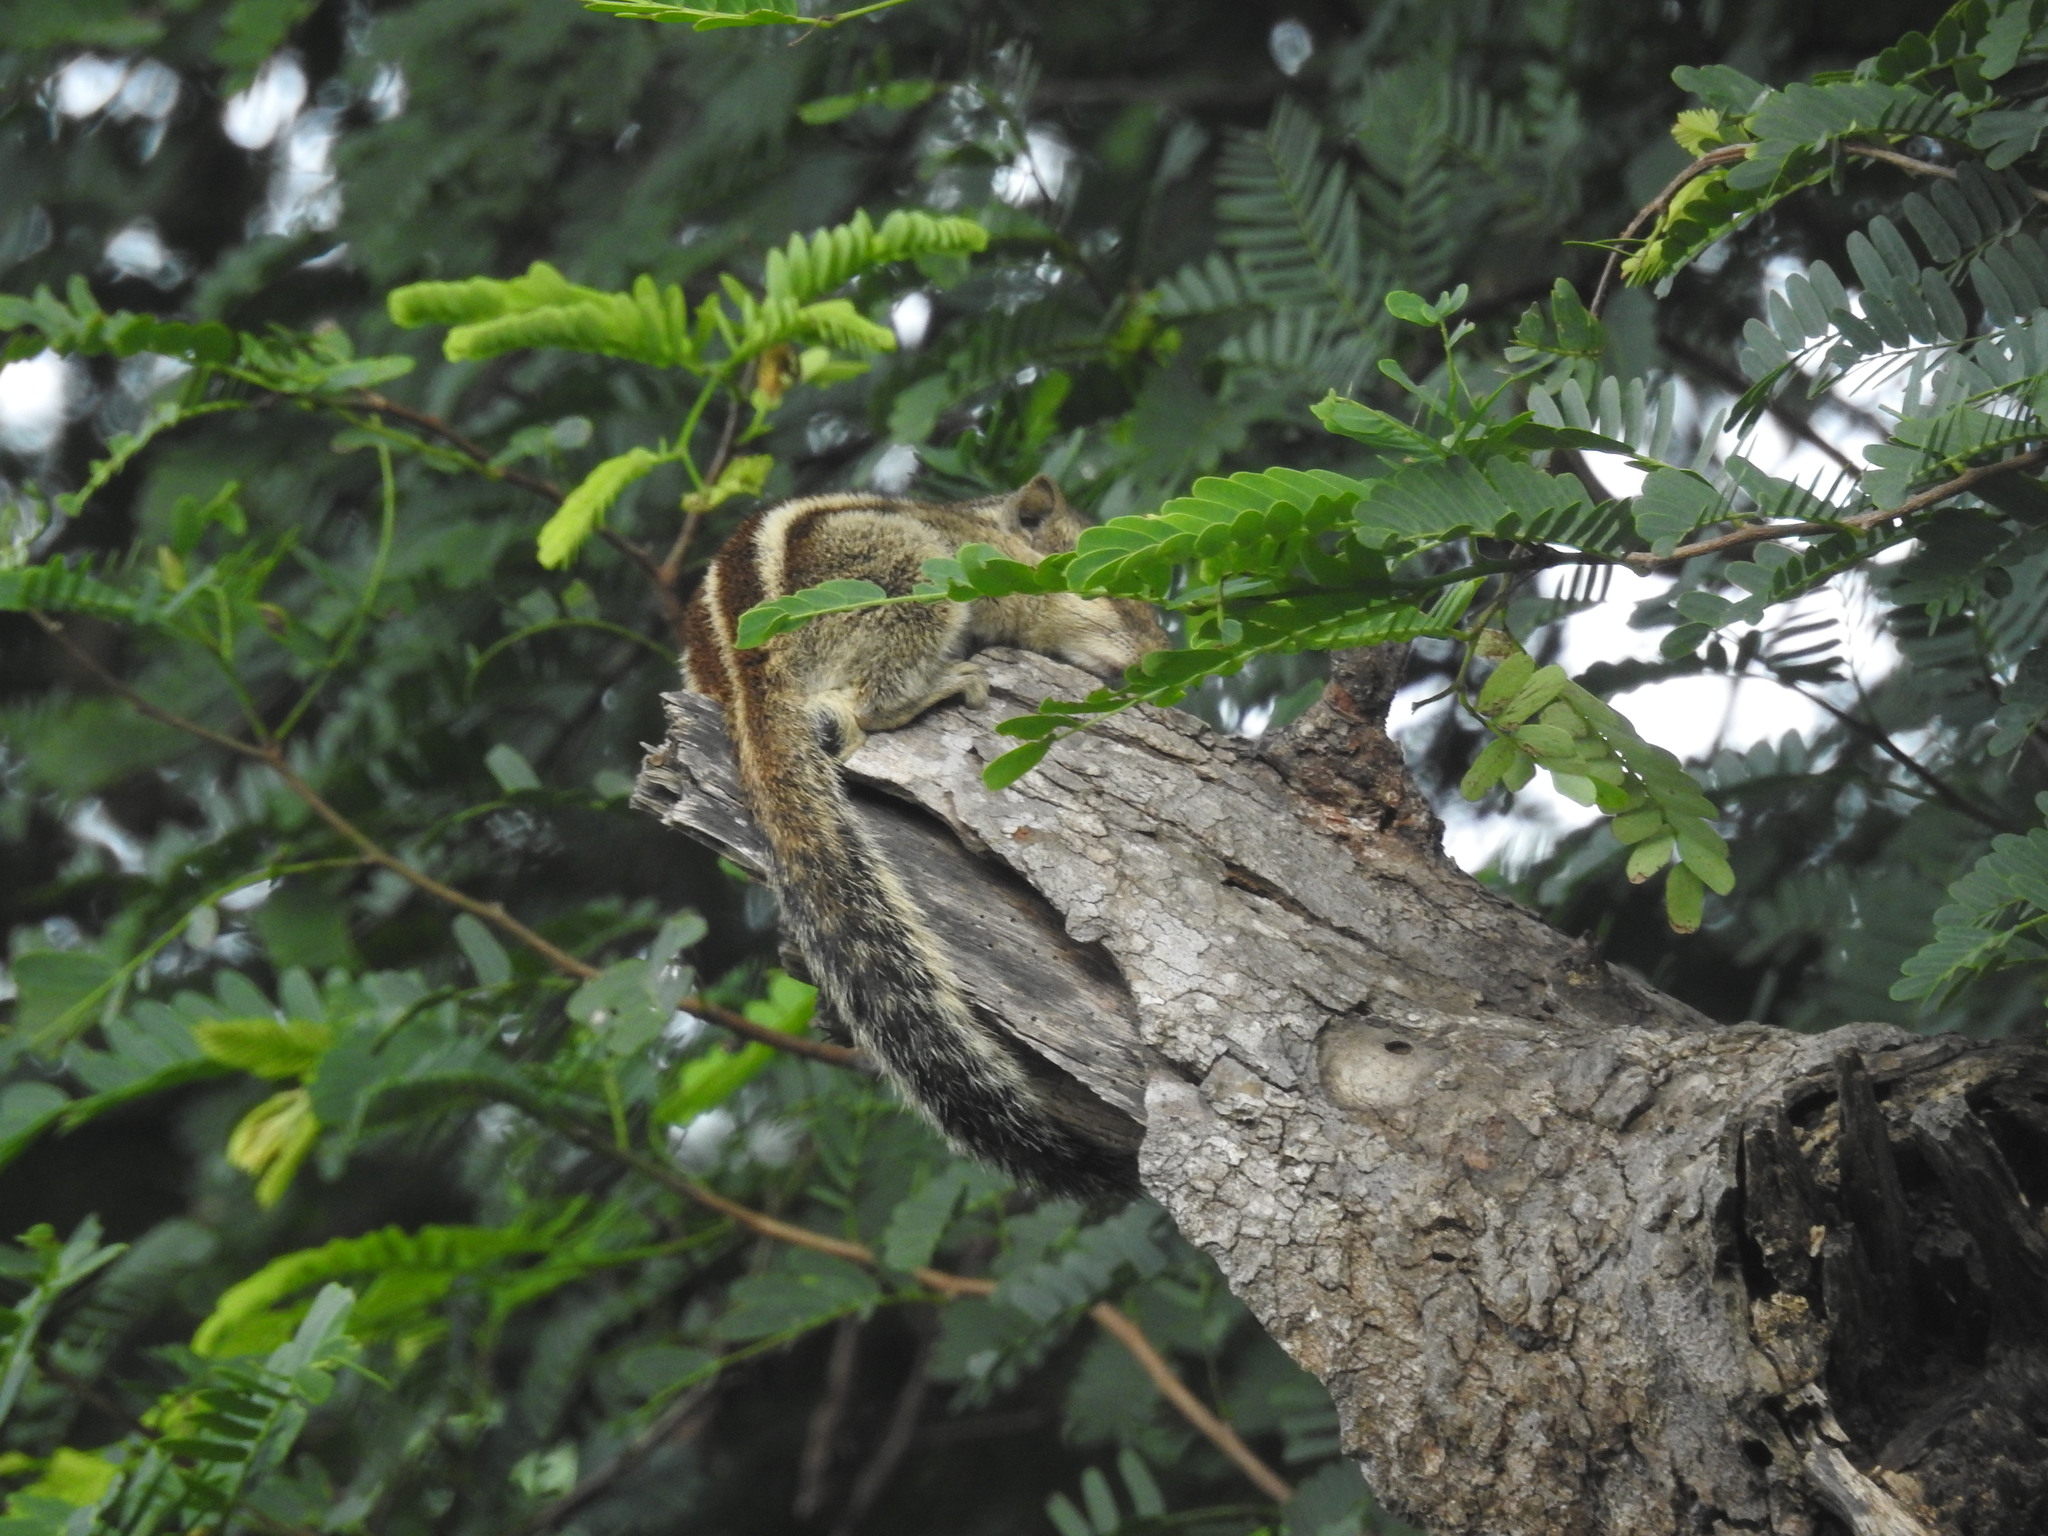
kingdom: Animalia
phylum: Chordata
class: Mammalia
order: Rodentia
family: Sciuridae
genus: Funambulus
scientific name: Funambulus pennantii
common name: Northern palm squirrel
